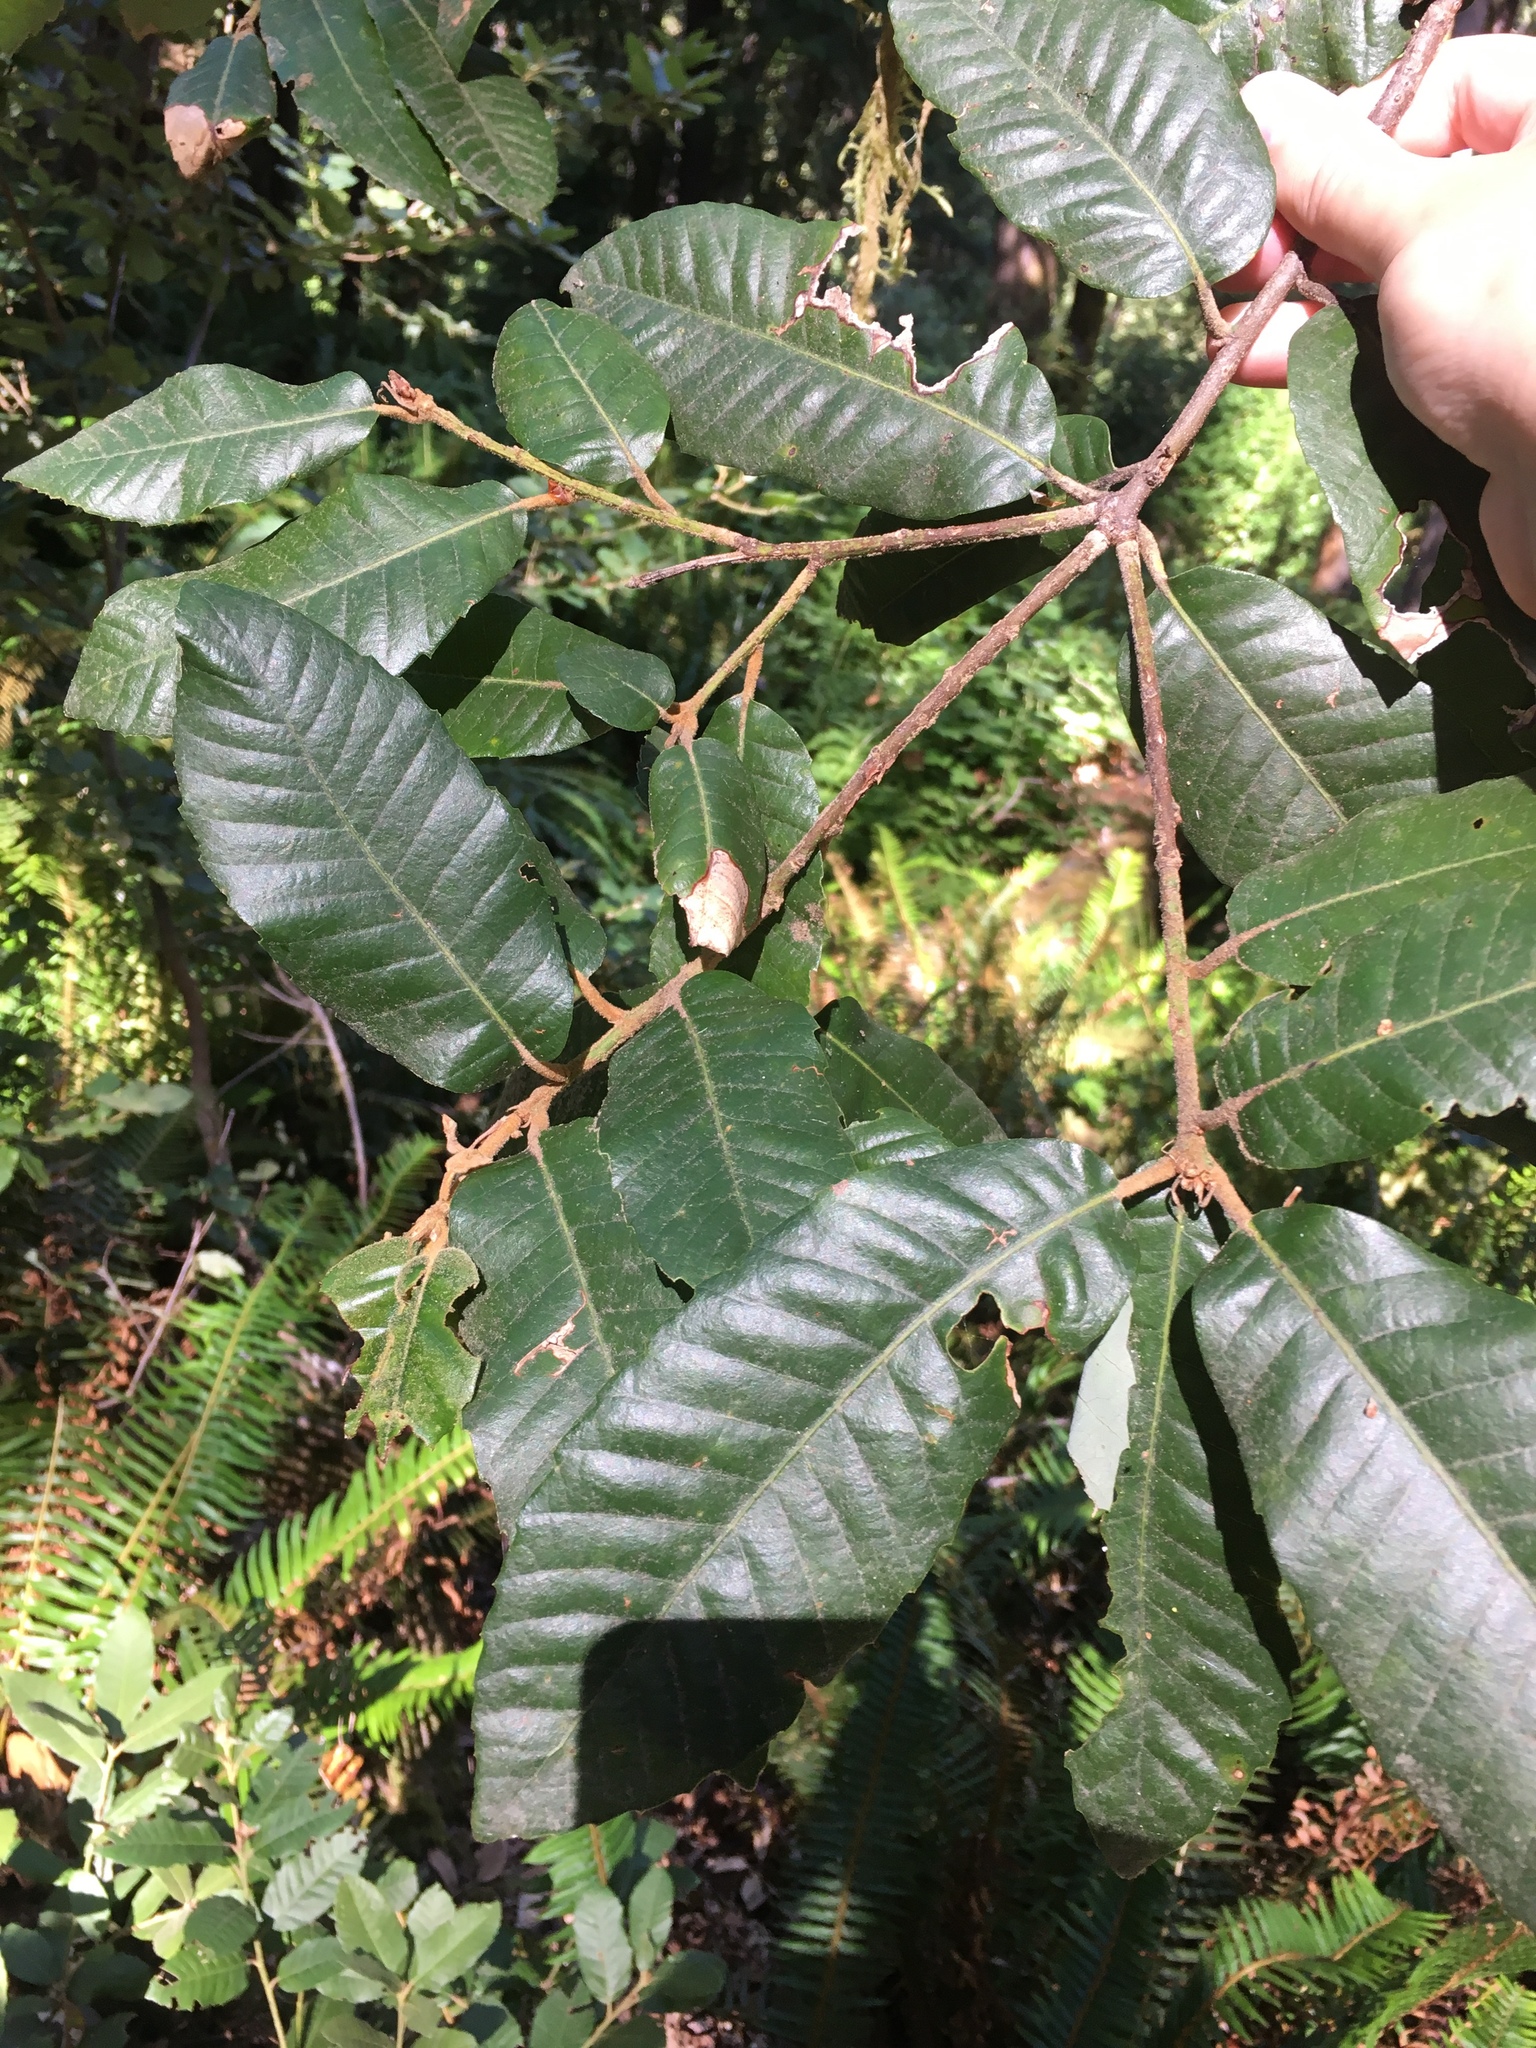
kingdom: Plantae
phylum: Tracheophyta
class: Magnoliopsida
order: Fagales
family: Fagaceae
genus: Notholithocarpus
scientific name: Notholithocarpus densiflorus
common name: Tan bark oak
